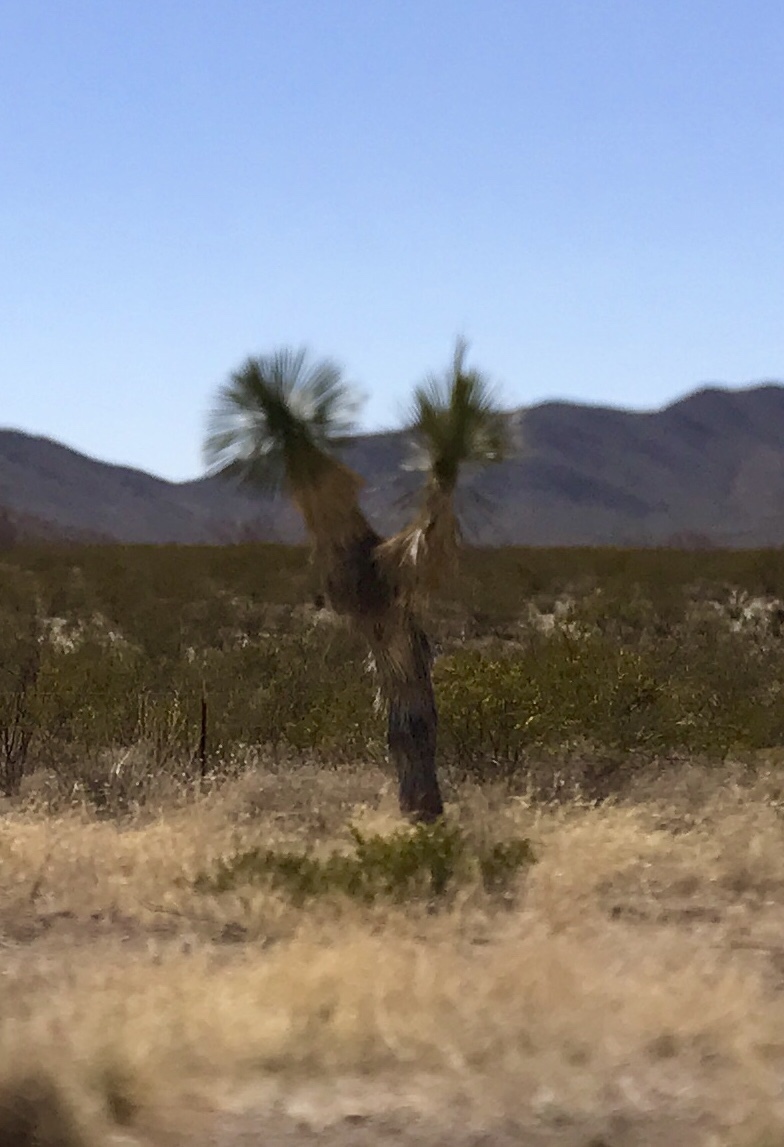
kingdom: Plantae
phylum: Tracheophyta
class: Liliopsida
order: Asparagales
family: Asparagaceae
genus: Yucca
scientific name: Yucca elata
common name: Palmella
